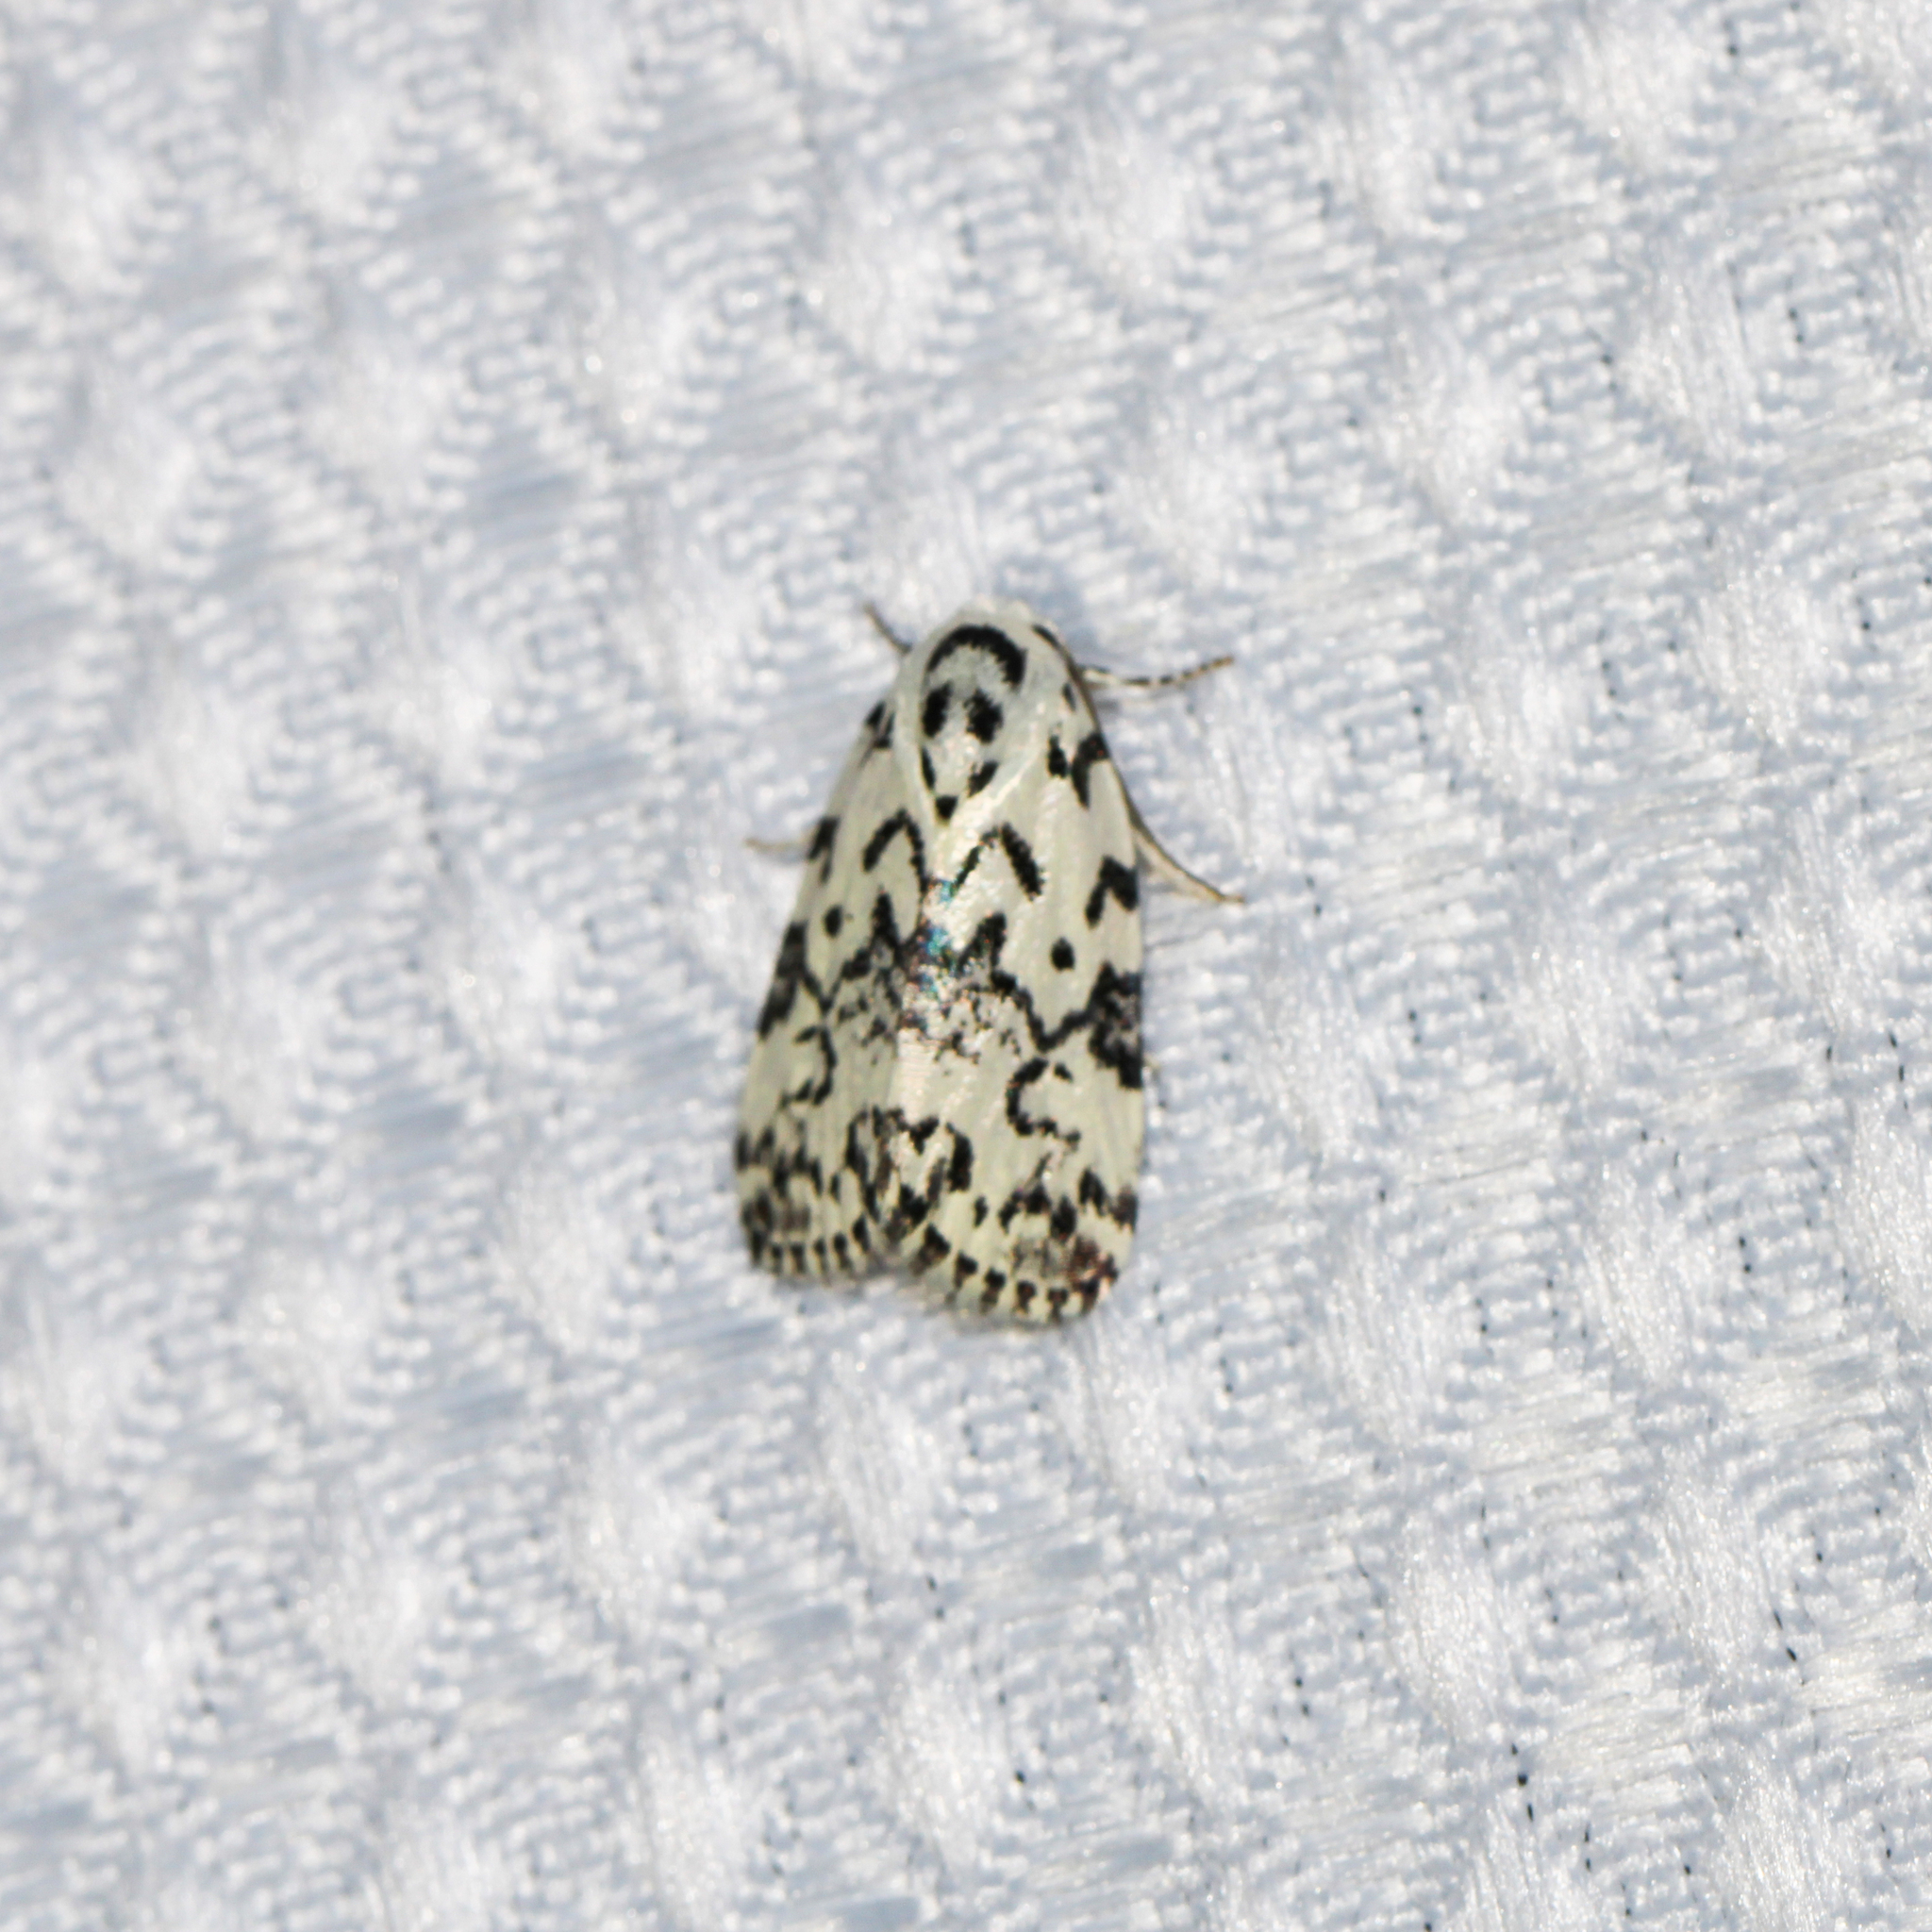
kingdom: Animalia
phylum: Arthropoda
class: Insecta
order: Lepidoptera
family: Noctuidae
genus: Polygrammate
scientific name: Polygrammate hebraeicum
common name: Hebrew moth
